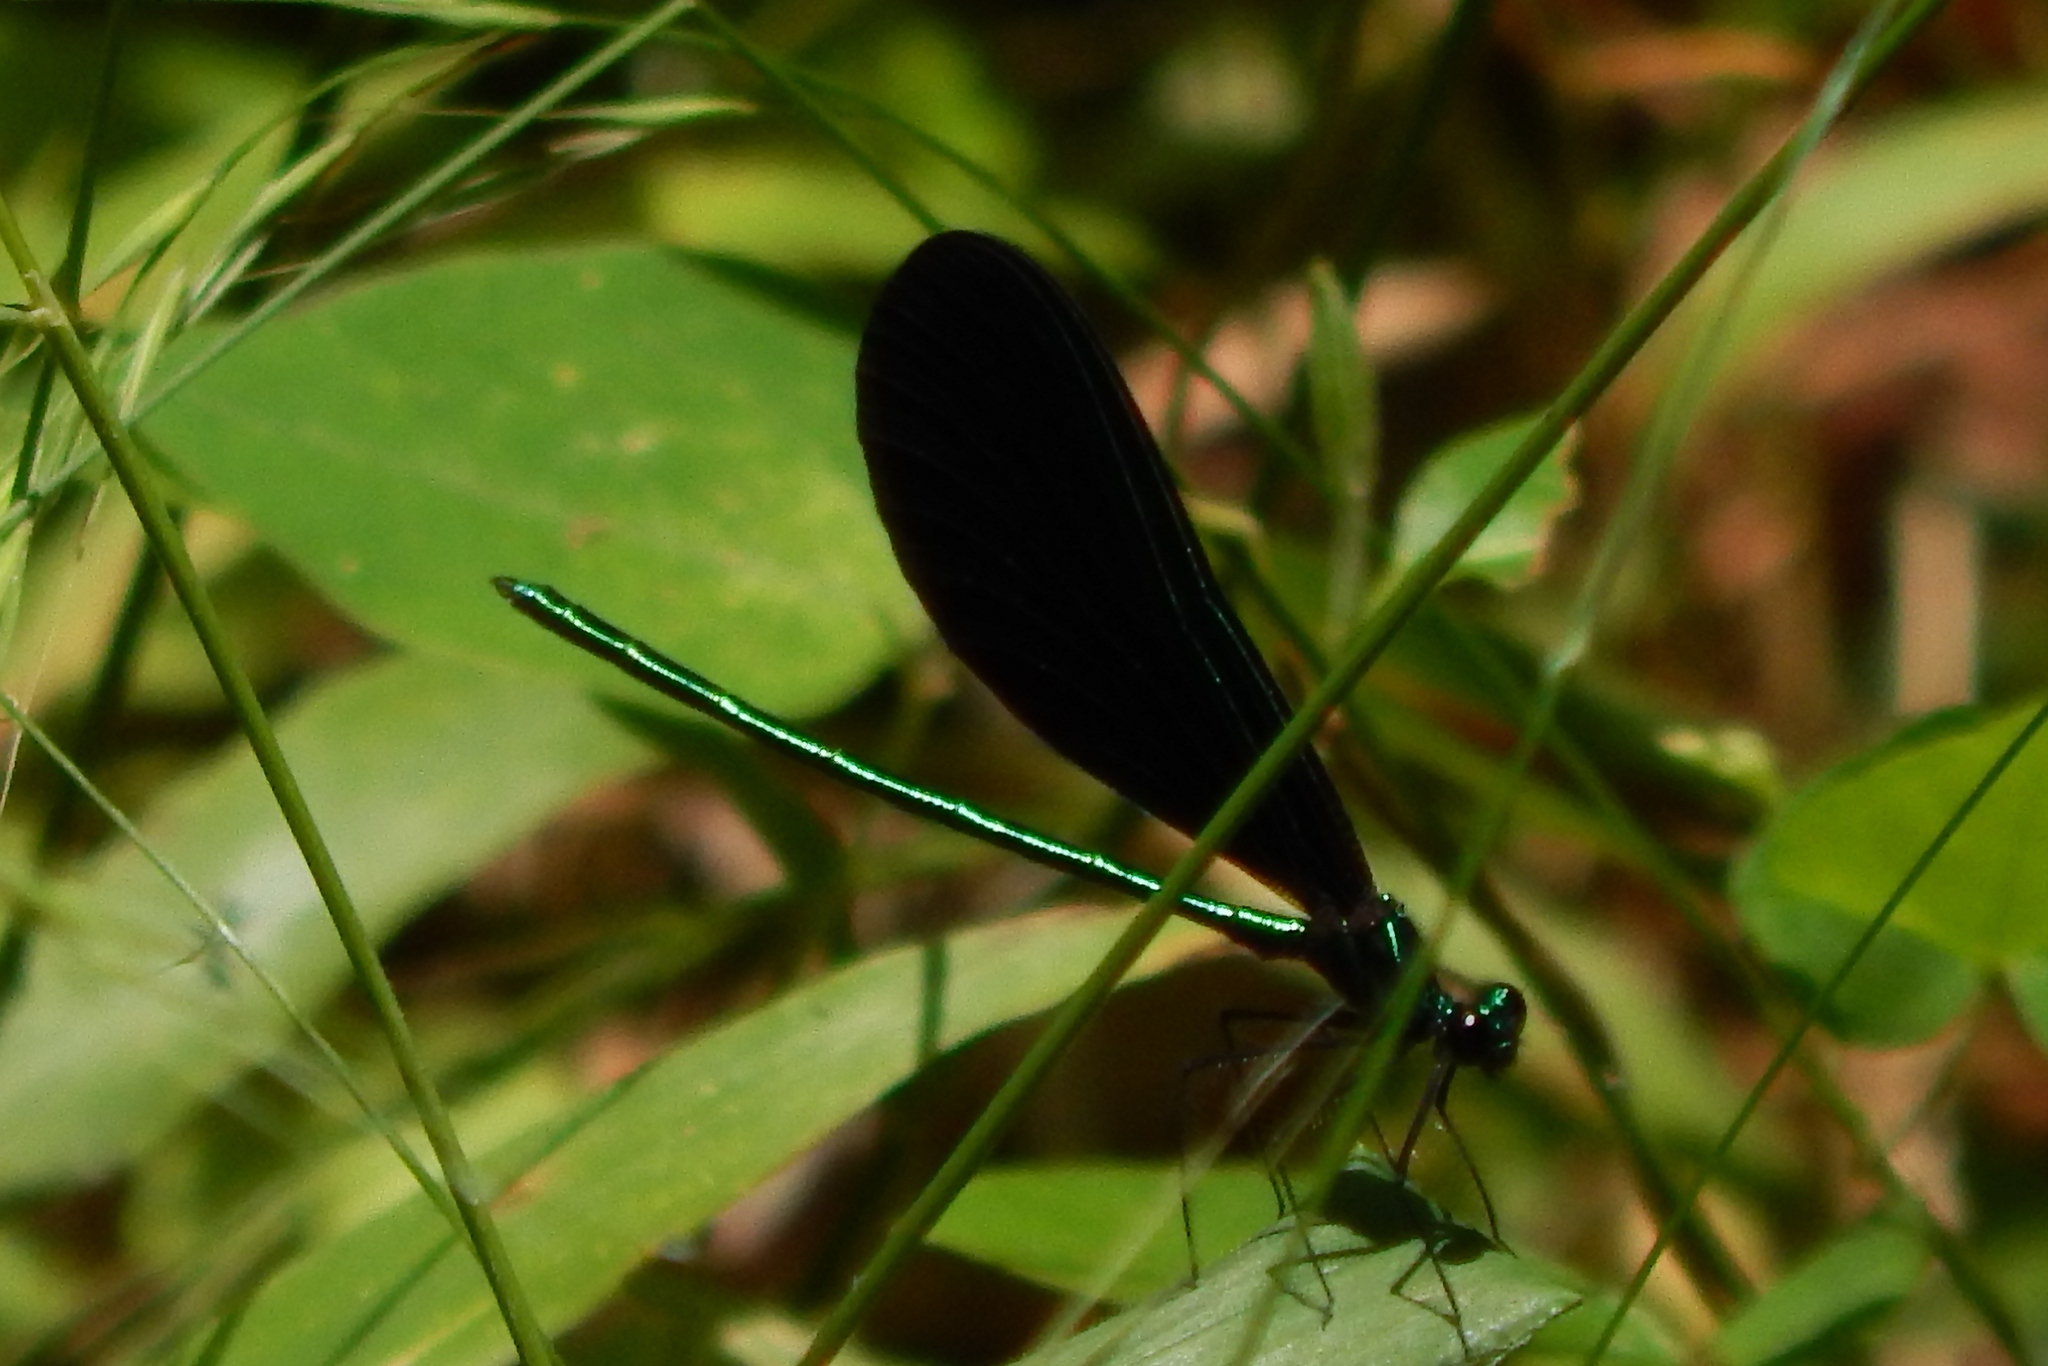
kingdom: Animalia
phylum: Arthropoda
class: Insecta
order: Odonata
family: Calopterygidae
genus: Calopteryx
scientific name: Calopteryx maculata
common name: Ebony jewelwing
